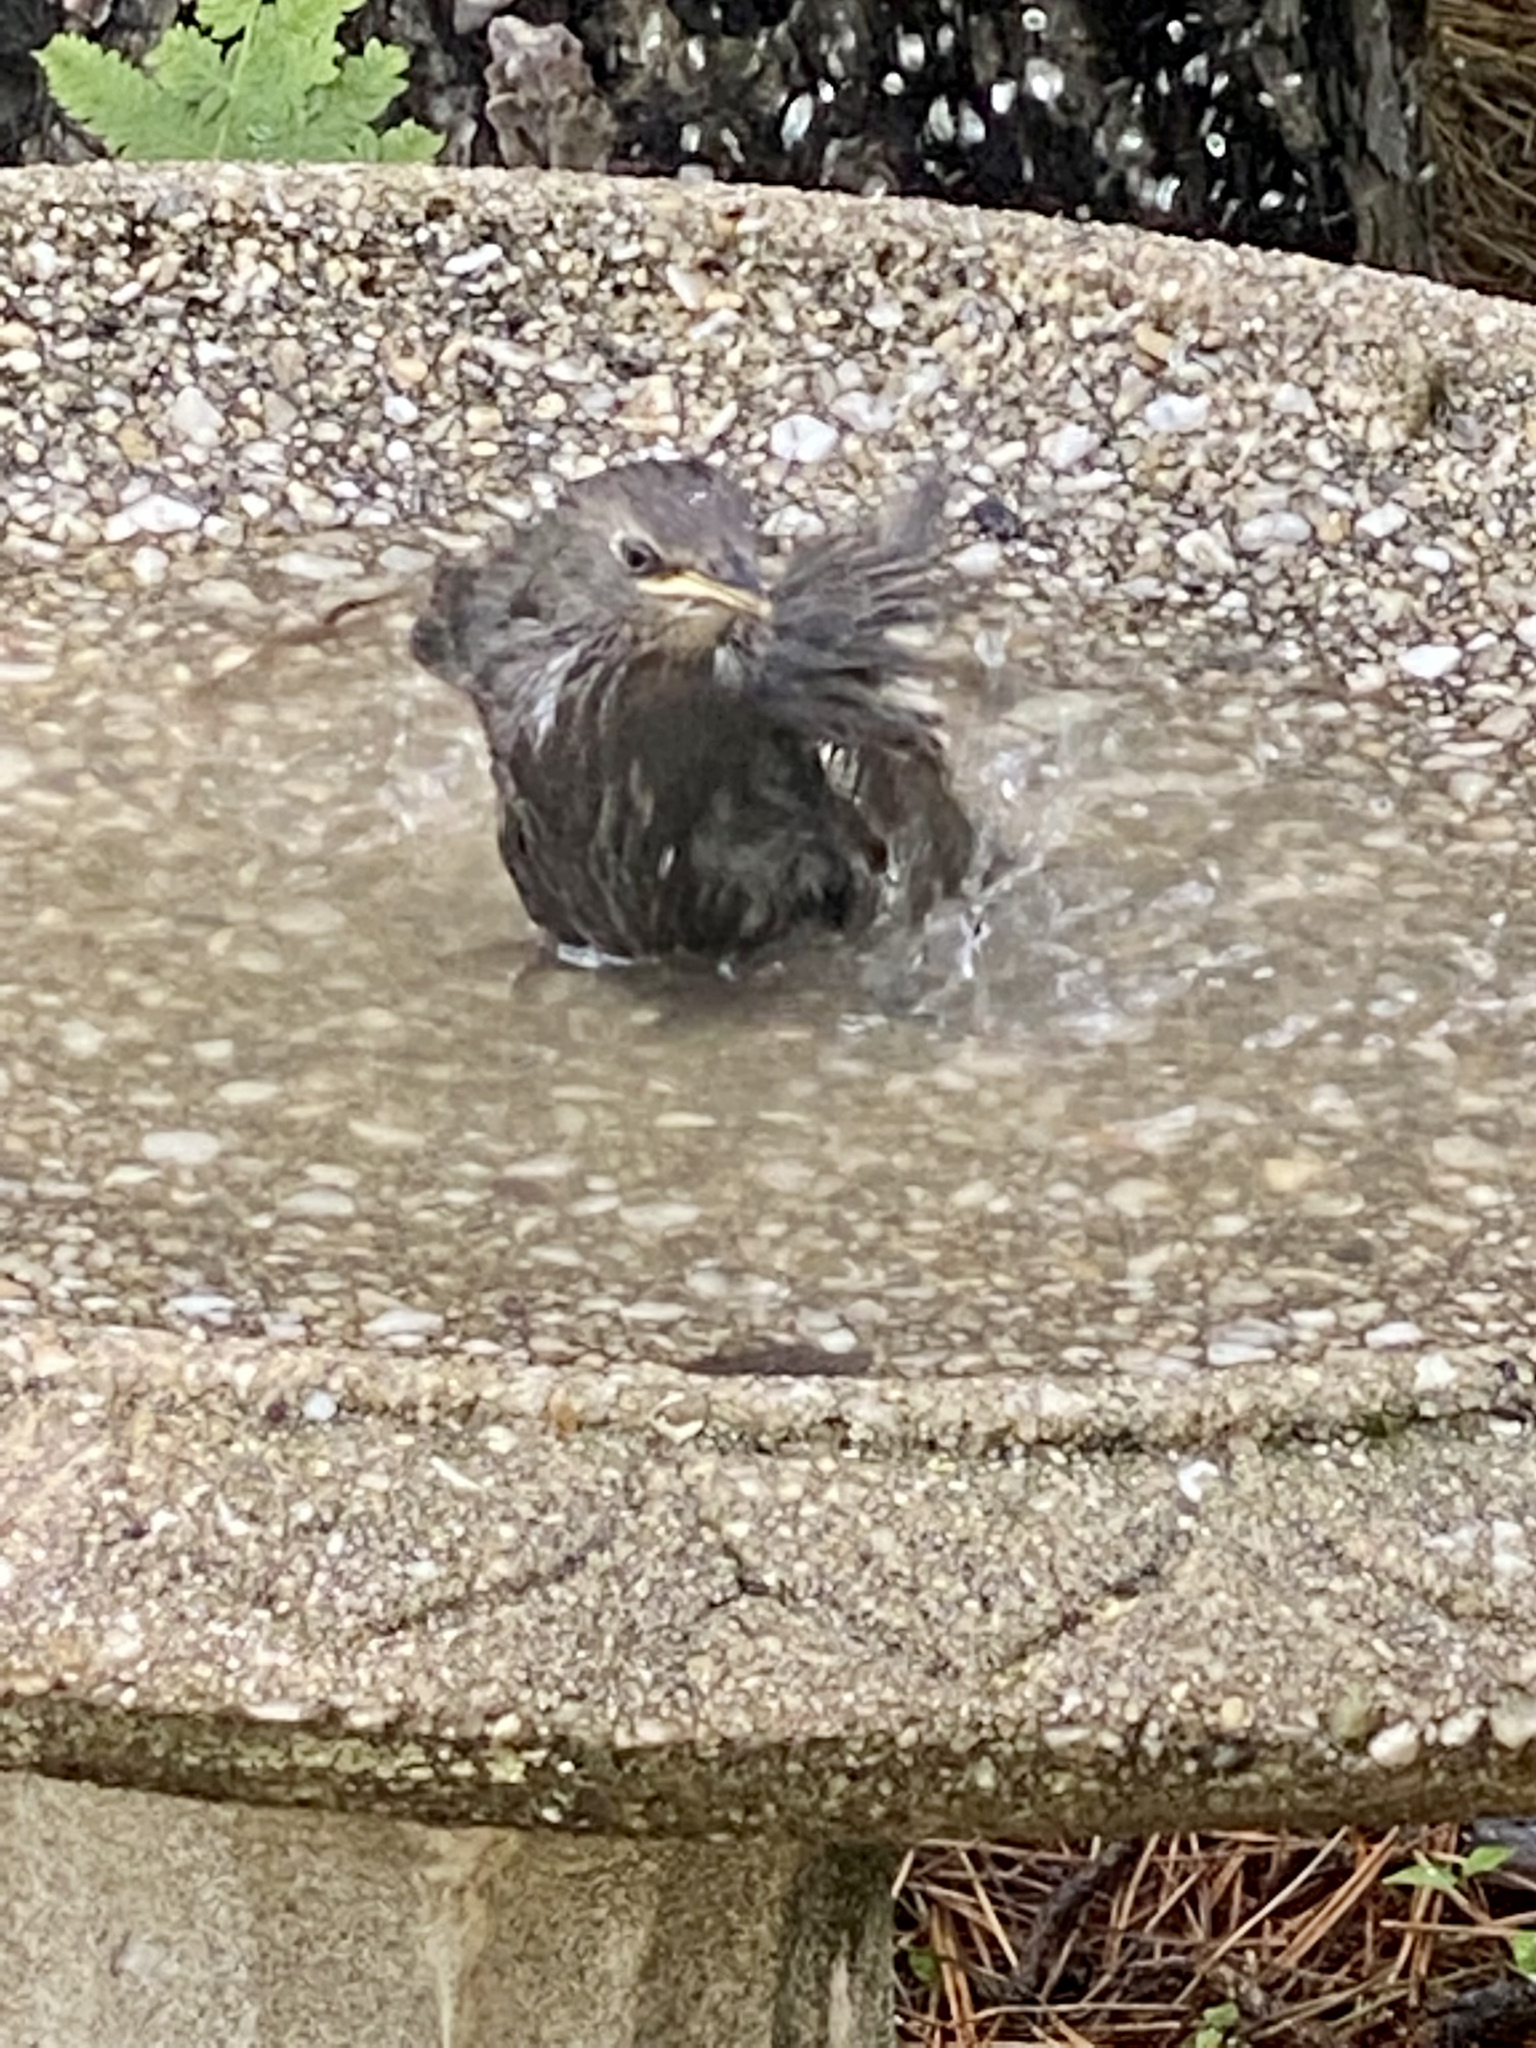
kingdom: Animalia
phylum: Chordata
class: Aves
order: Passeriformes
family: Sturnidae
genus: Sturnus
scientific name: Sturnus vulgaris
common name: Common starling
